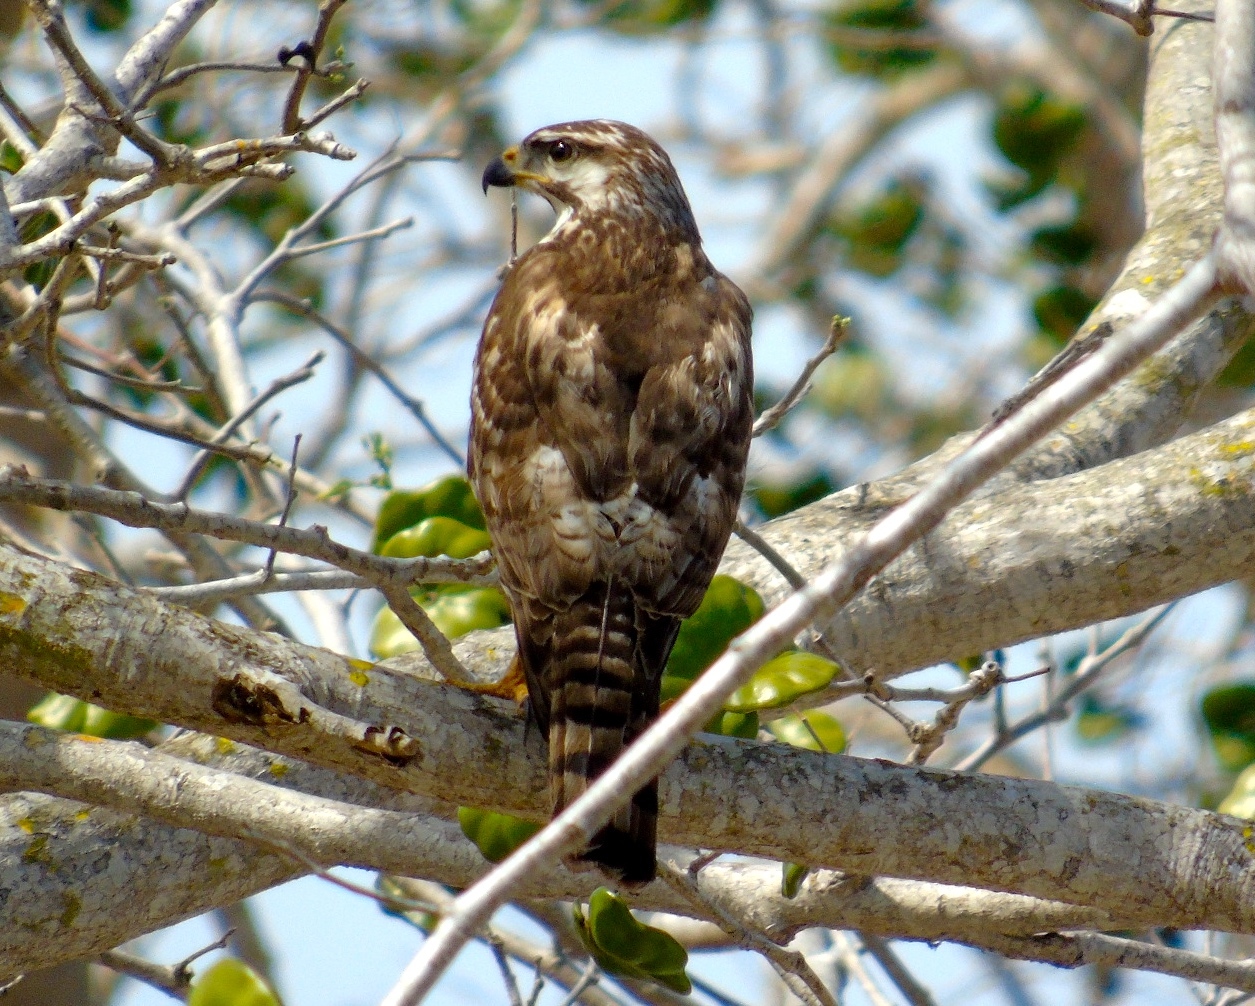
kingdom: Animalia
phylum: Chordata
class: Aves
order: Accipitriformes
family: Accipitridae
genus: Buteo
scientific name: Buteo nitidus
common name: Grey-lined hawk
